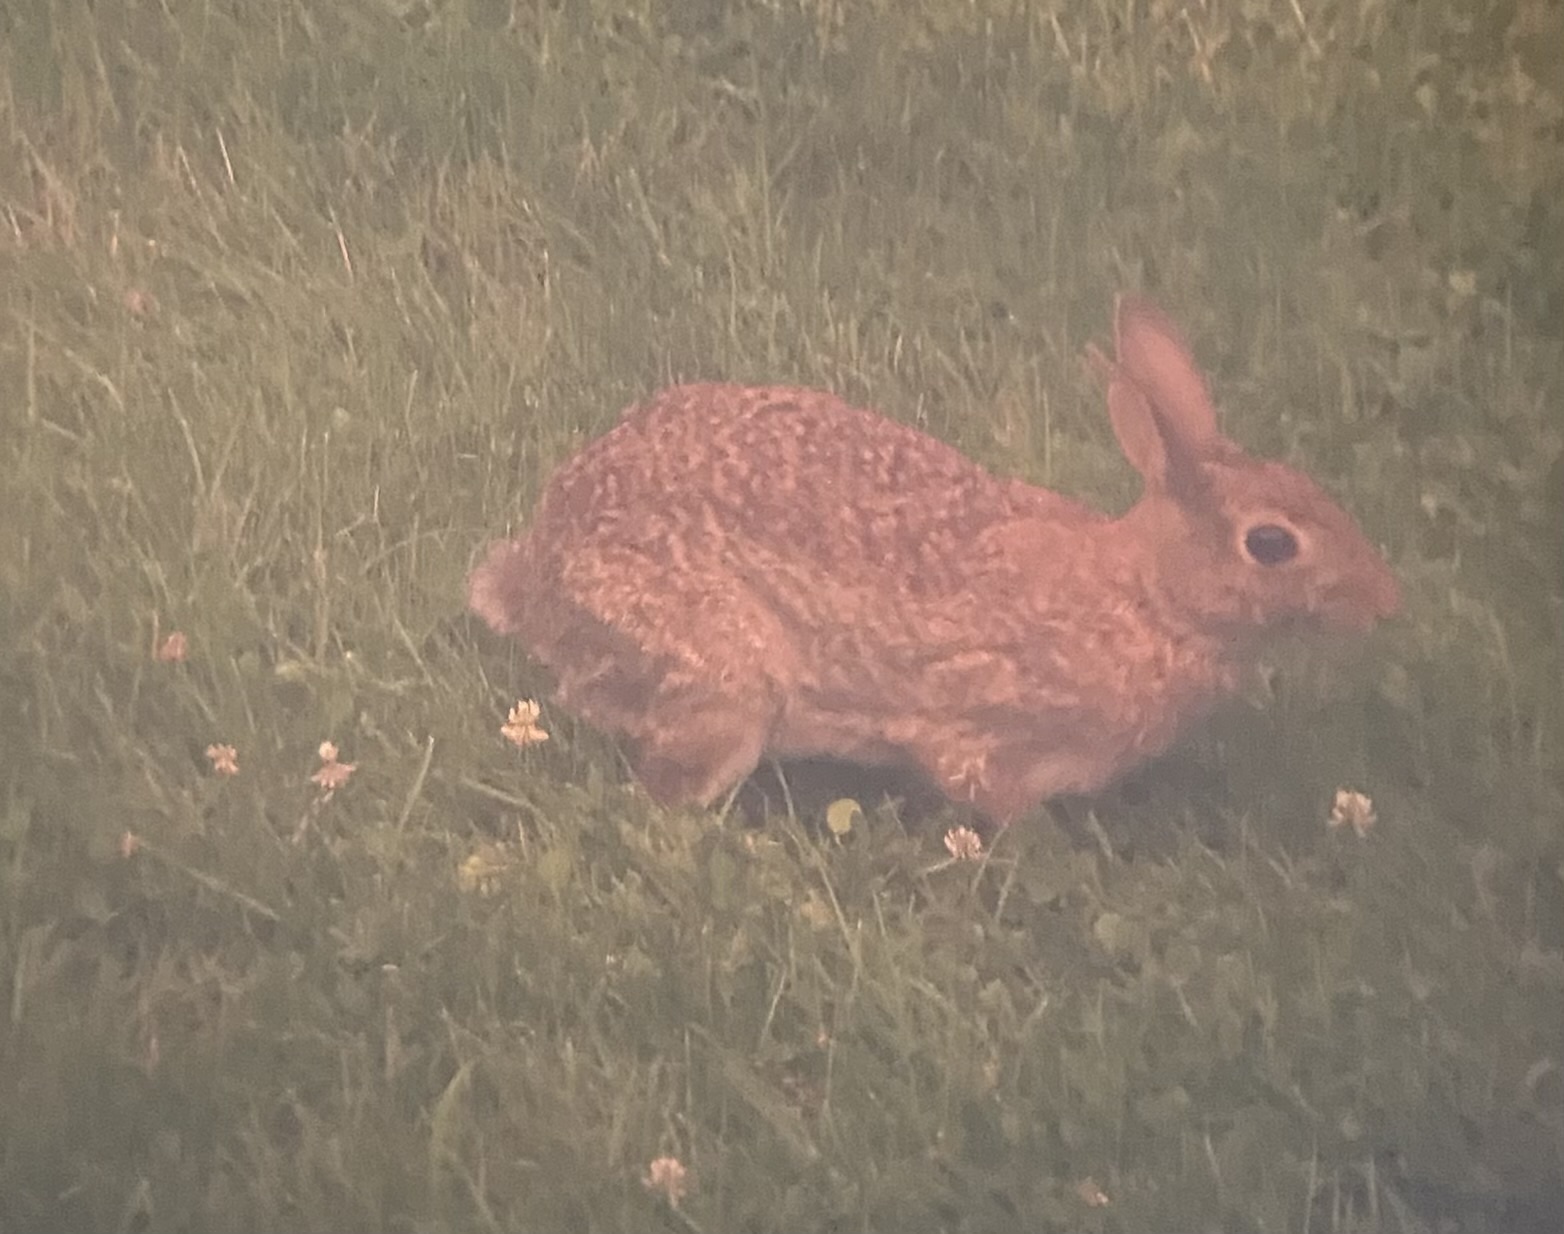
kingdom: Animalia
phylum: Chordata
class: Mammalia
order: Lagomorpha
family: Leporidae
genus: Sylvilagus
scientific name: Sylvilagus floridanus
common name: Eastern cottontail
